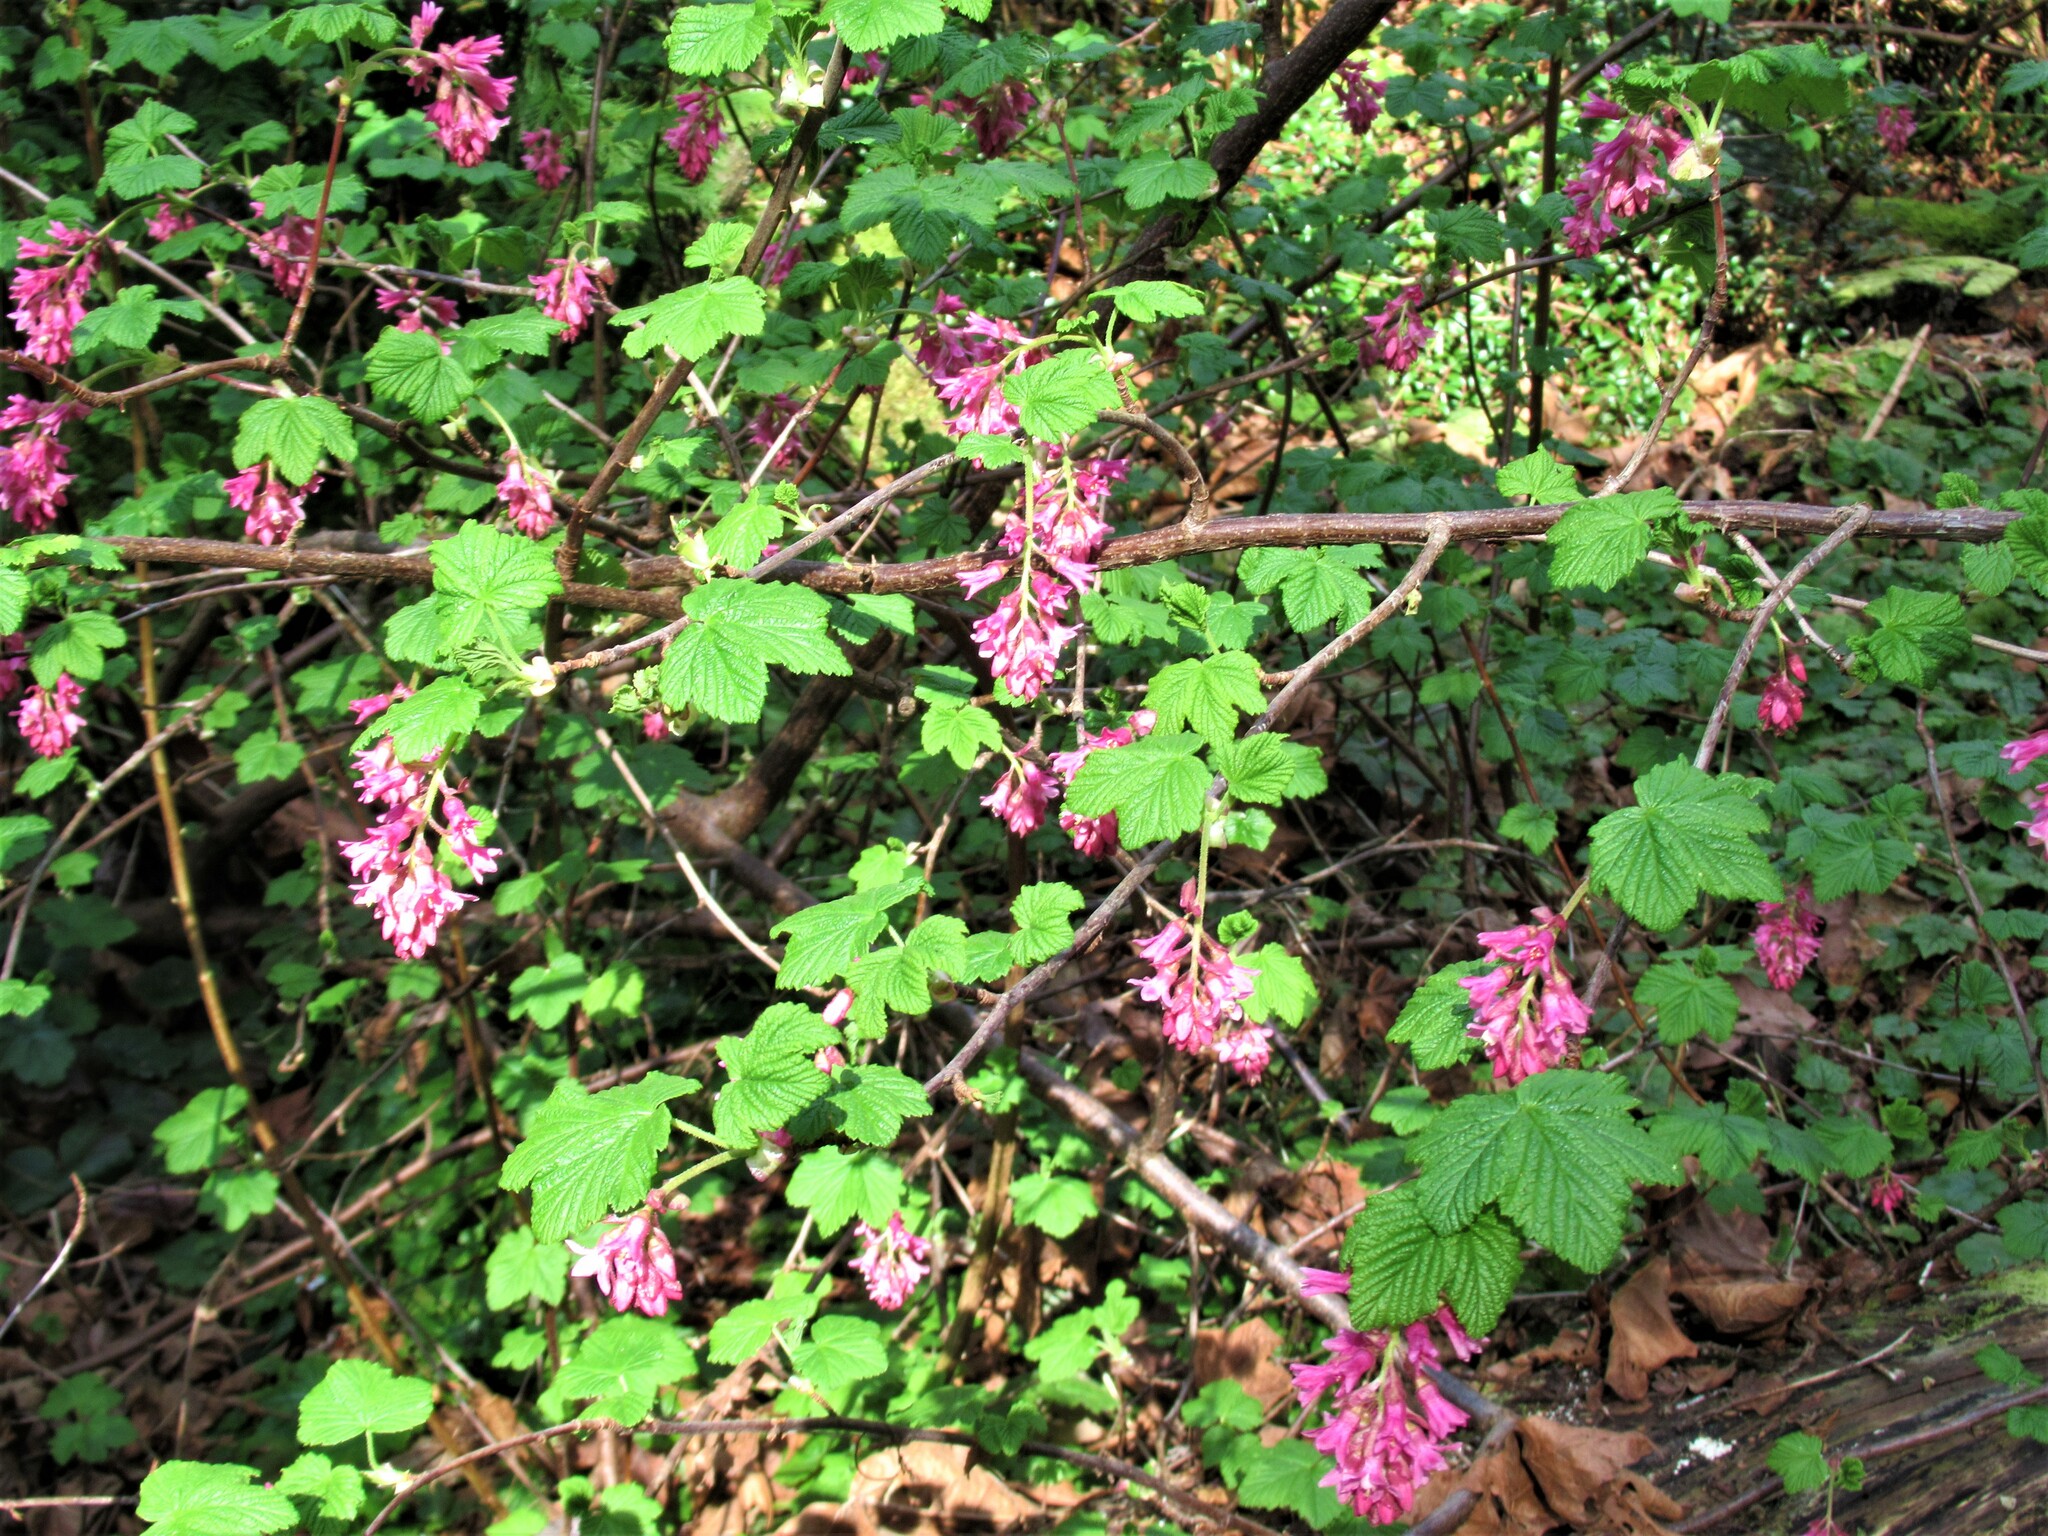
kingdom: Plantae
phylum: Tracheophyta
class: Magnoliopsida
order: Saxifragales
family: Grossulariaceae
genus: Ribes
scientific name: Ribes sanguineum
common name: Flowering currant
